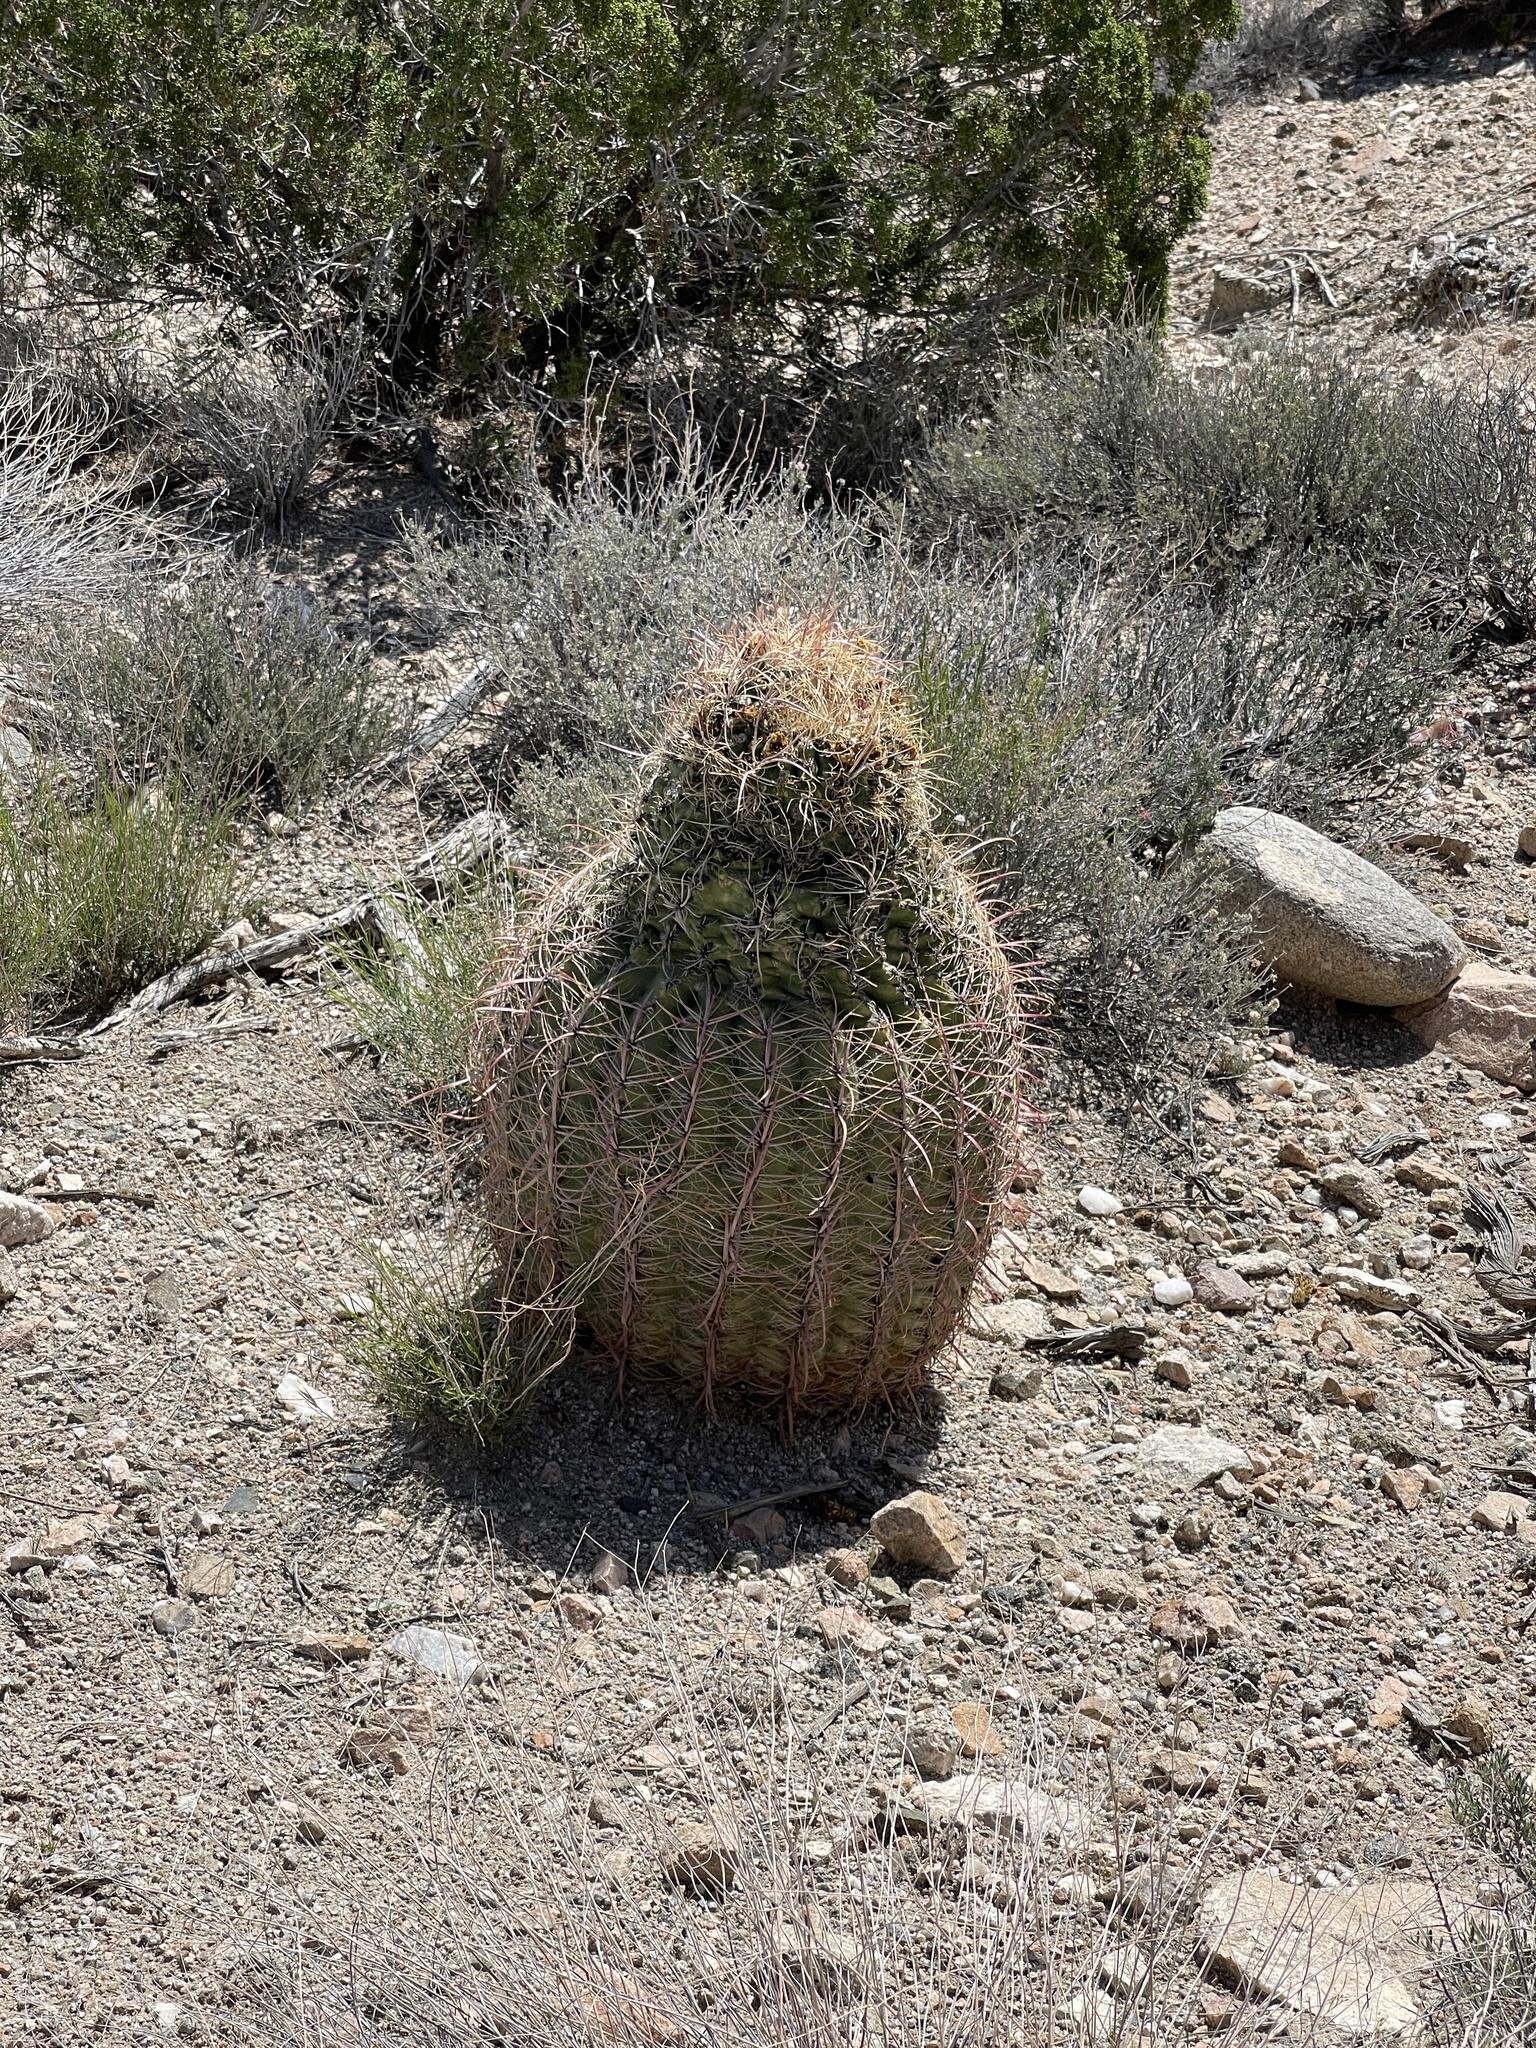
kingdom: Plantae
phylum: Tracheophyta
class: Magnoliopsida
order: Caryophyllales
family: Cactaceae
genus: Ferocactus
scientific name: Ferocactus cylindraceus
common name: California barrel cactus
